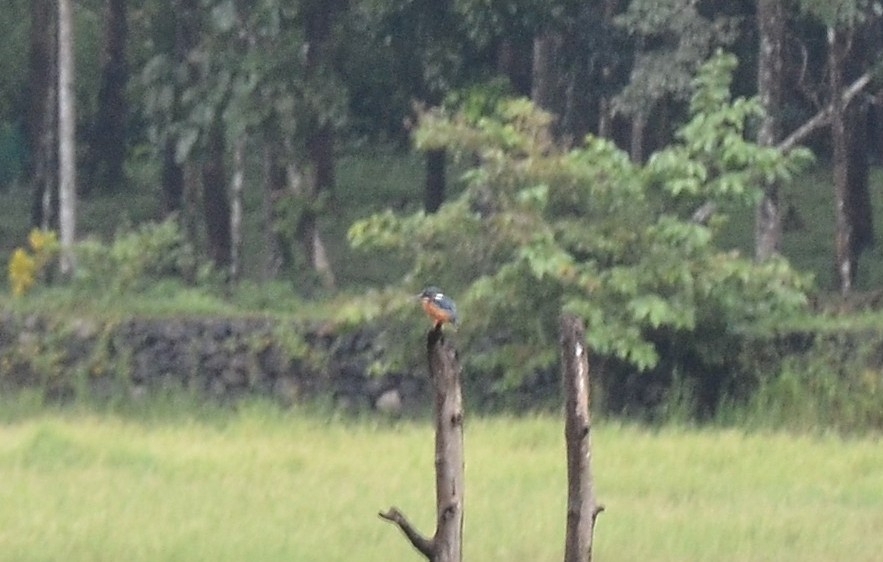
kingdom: Animalia
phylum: Chordata
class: Aves
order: Coraciiformes
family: Alcedinidae
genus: Alcedo
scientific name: Alcedo atthis
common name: Common kingfisher
